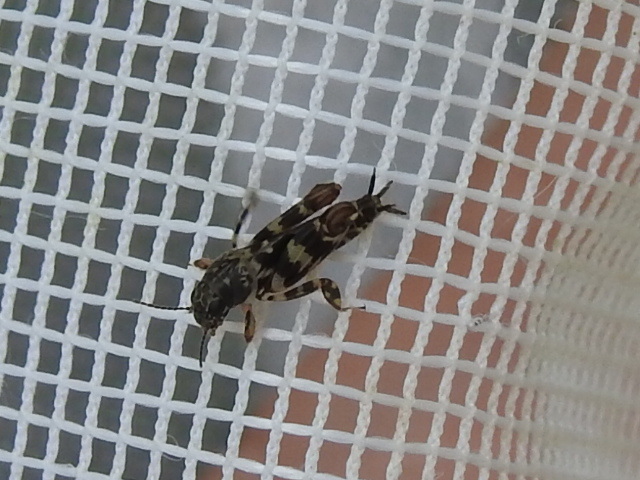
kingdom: Animalia
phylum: Arthropoda
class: Insecta
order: Orthoptera
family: Tridactylidae
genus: Ellipes
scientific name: Ellipes minuta
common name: Minute pygmy locust
